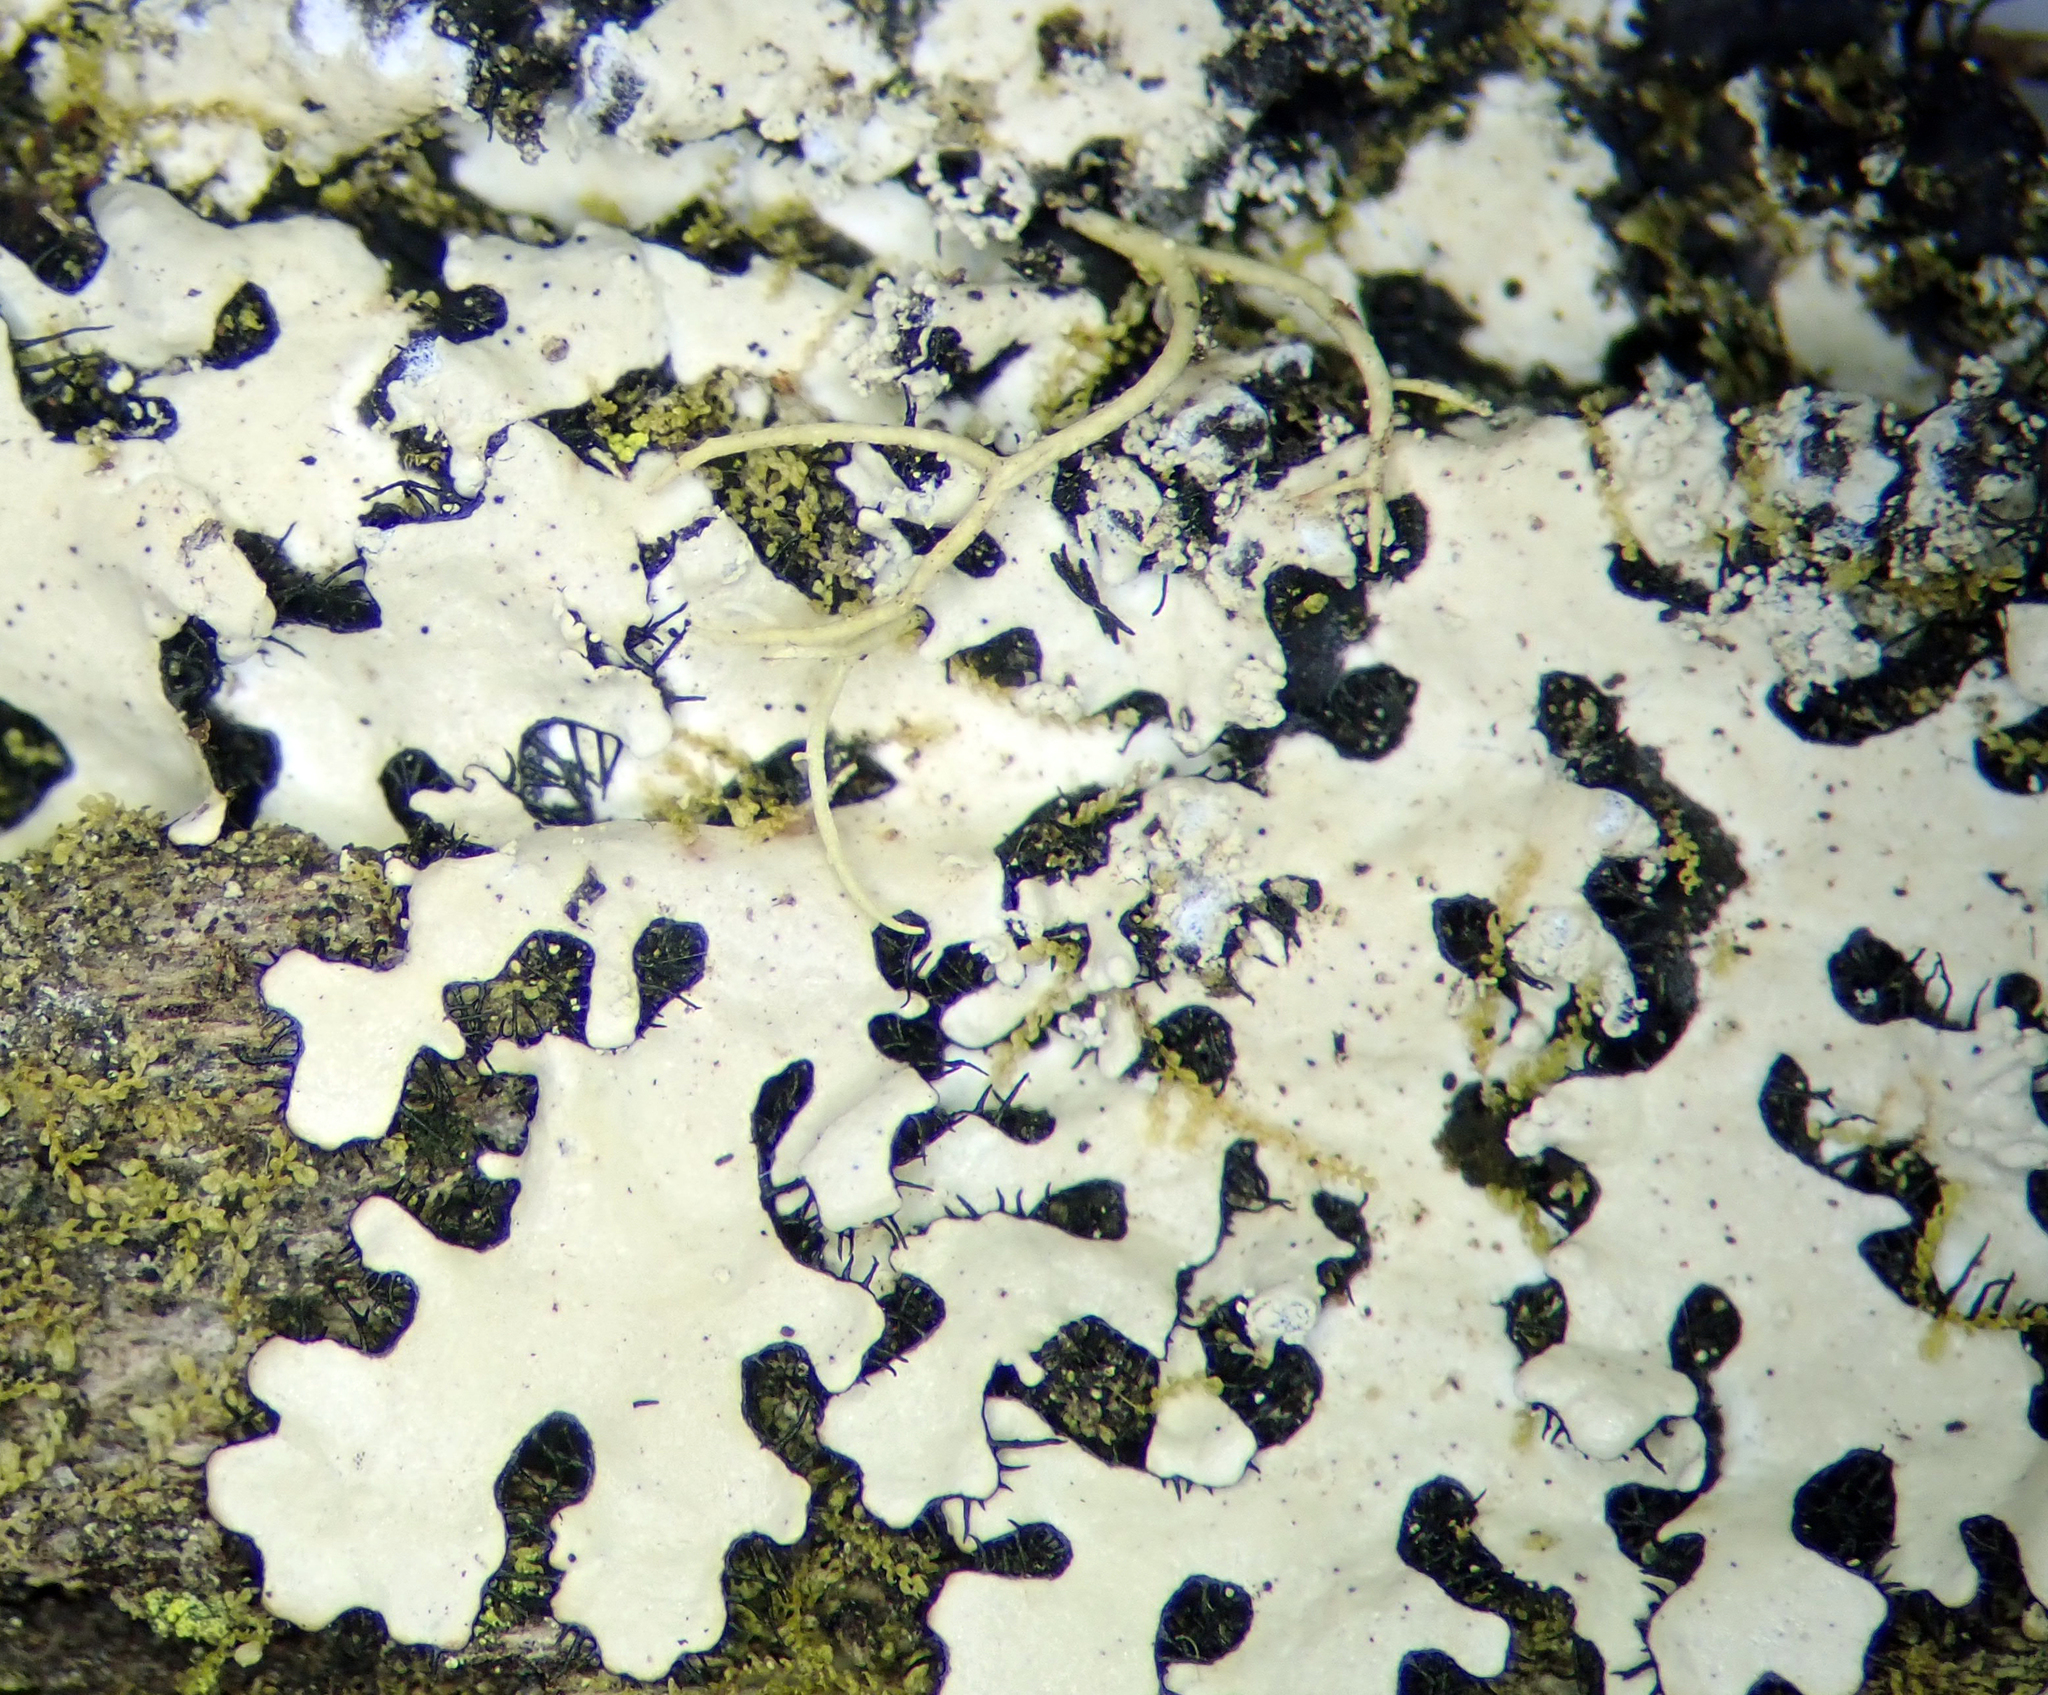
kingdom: Fungi
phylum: Ascomycota
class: Lecanoromycetes
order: Lecanorales
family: Parmeliaceae
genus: Hypotrachyna
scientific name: Hypotrachyna afrorevoluta
